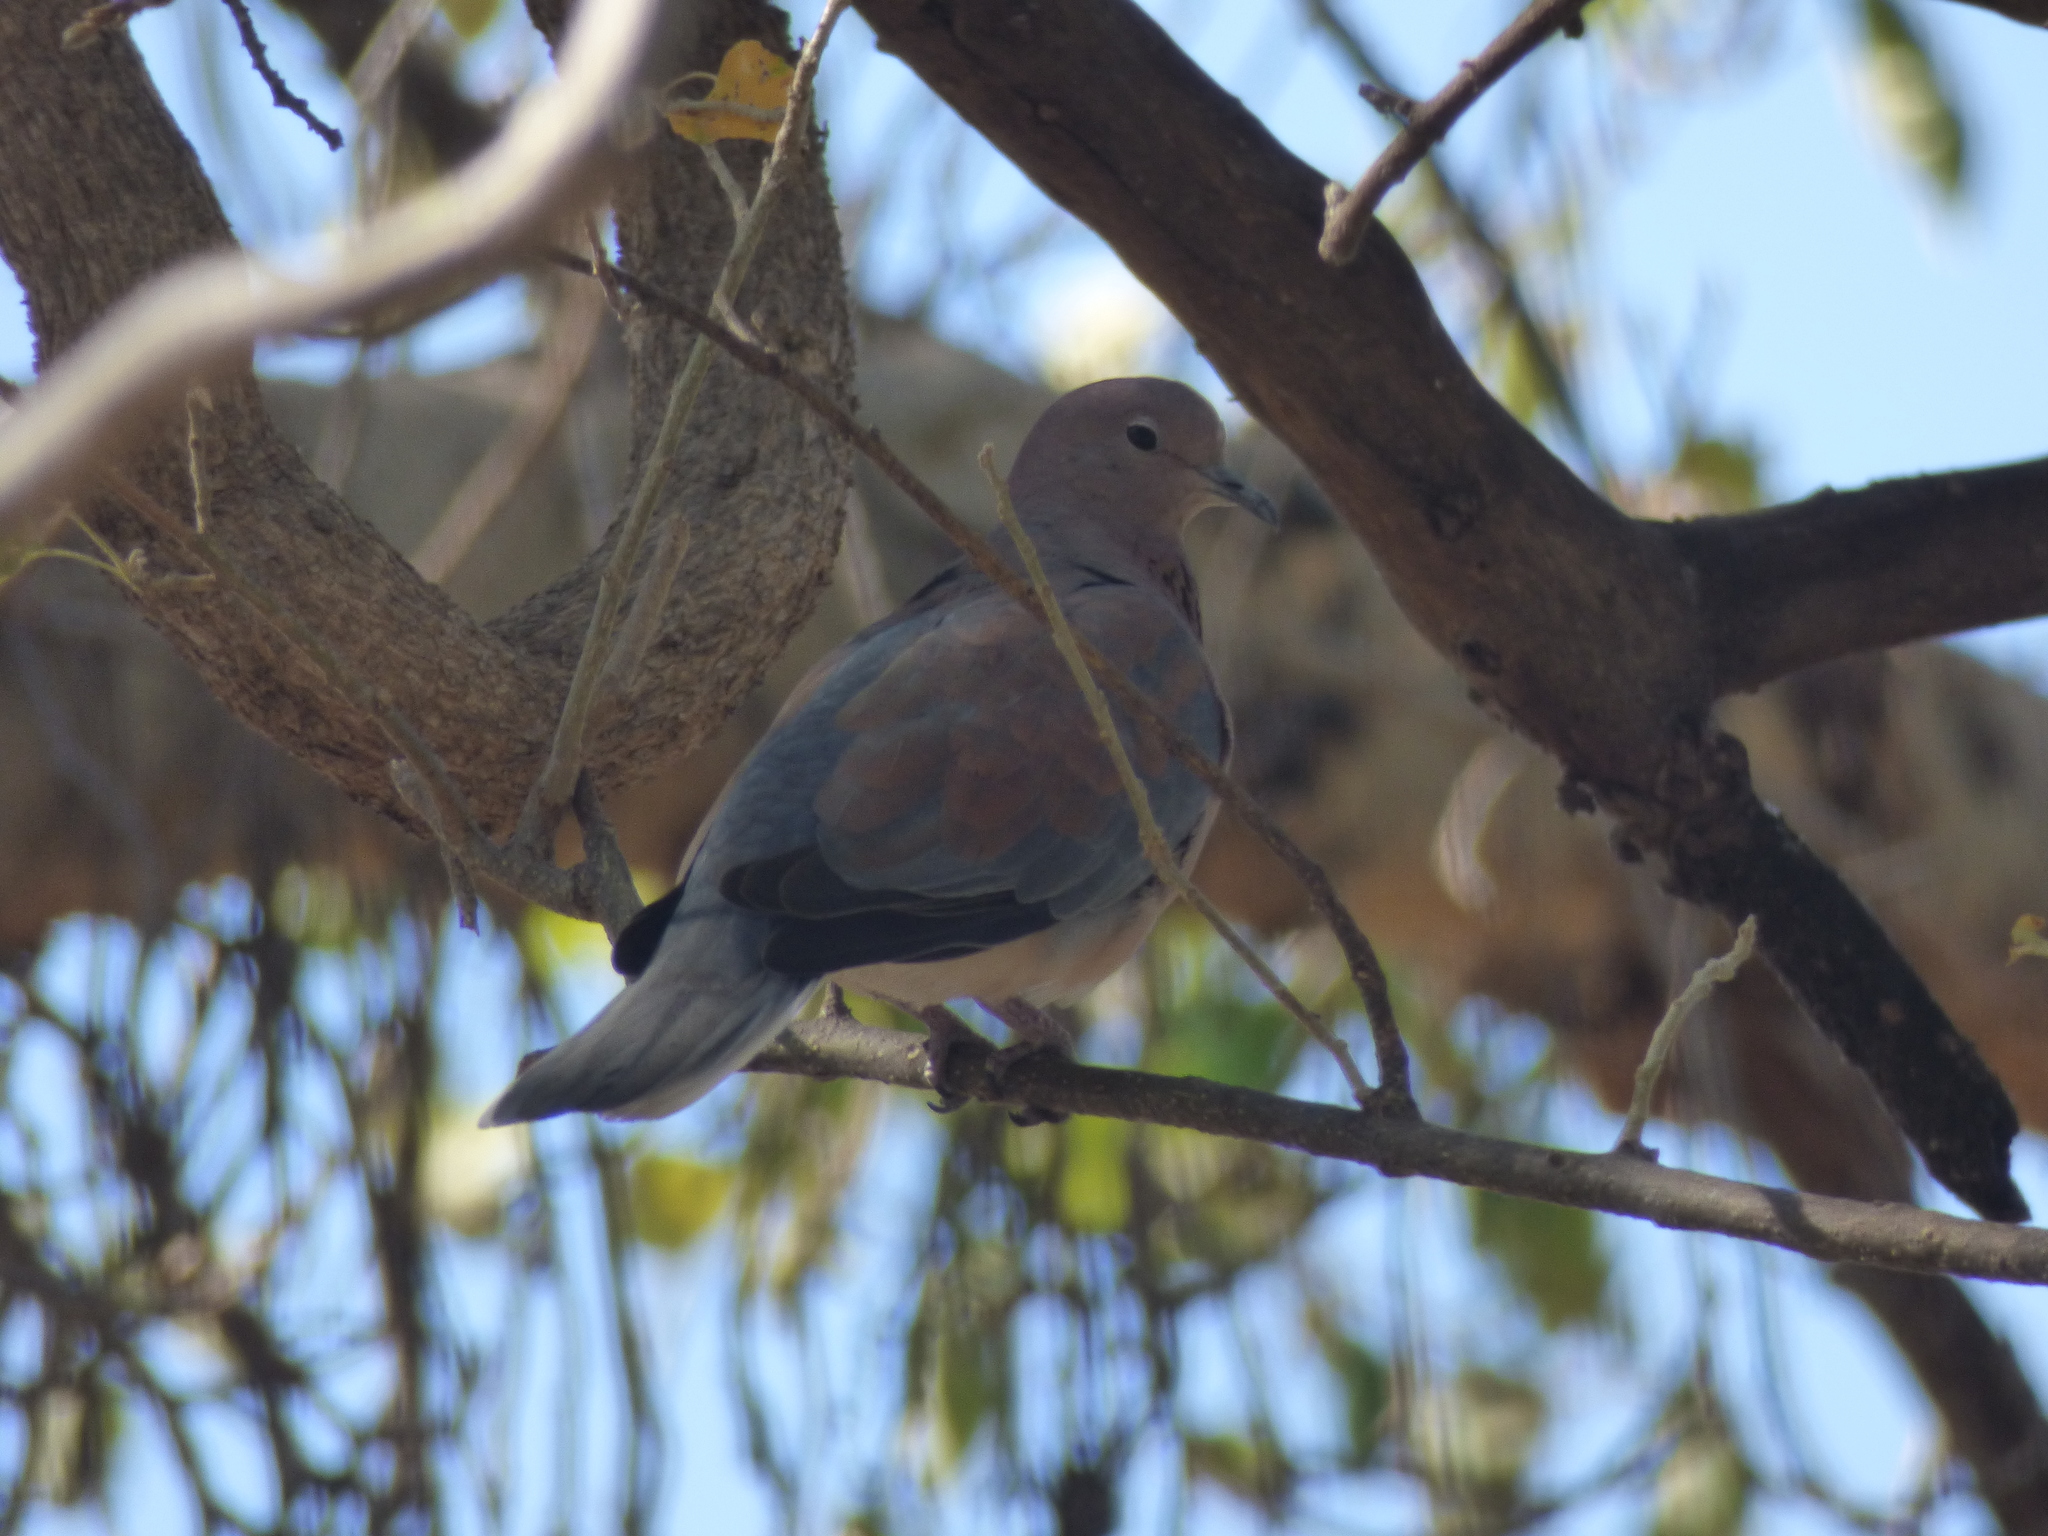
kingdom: Animalia
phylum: Chordata
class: Aves
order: Columbiformes
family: Columbidae
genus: Spilopelia
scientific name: Spilopelia senegalensis
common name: Laughing dove
